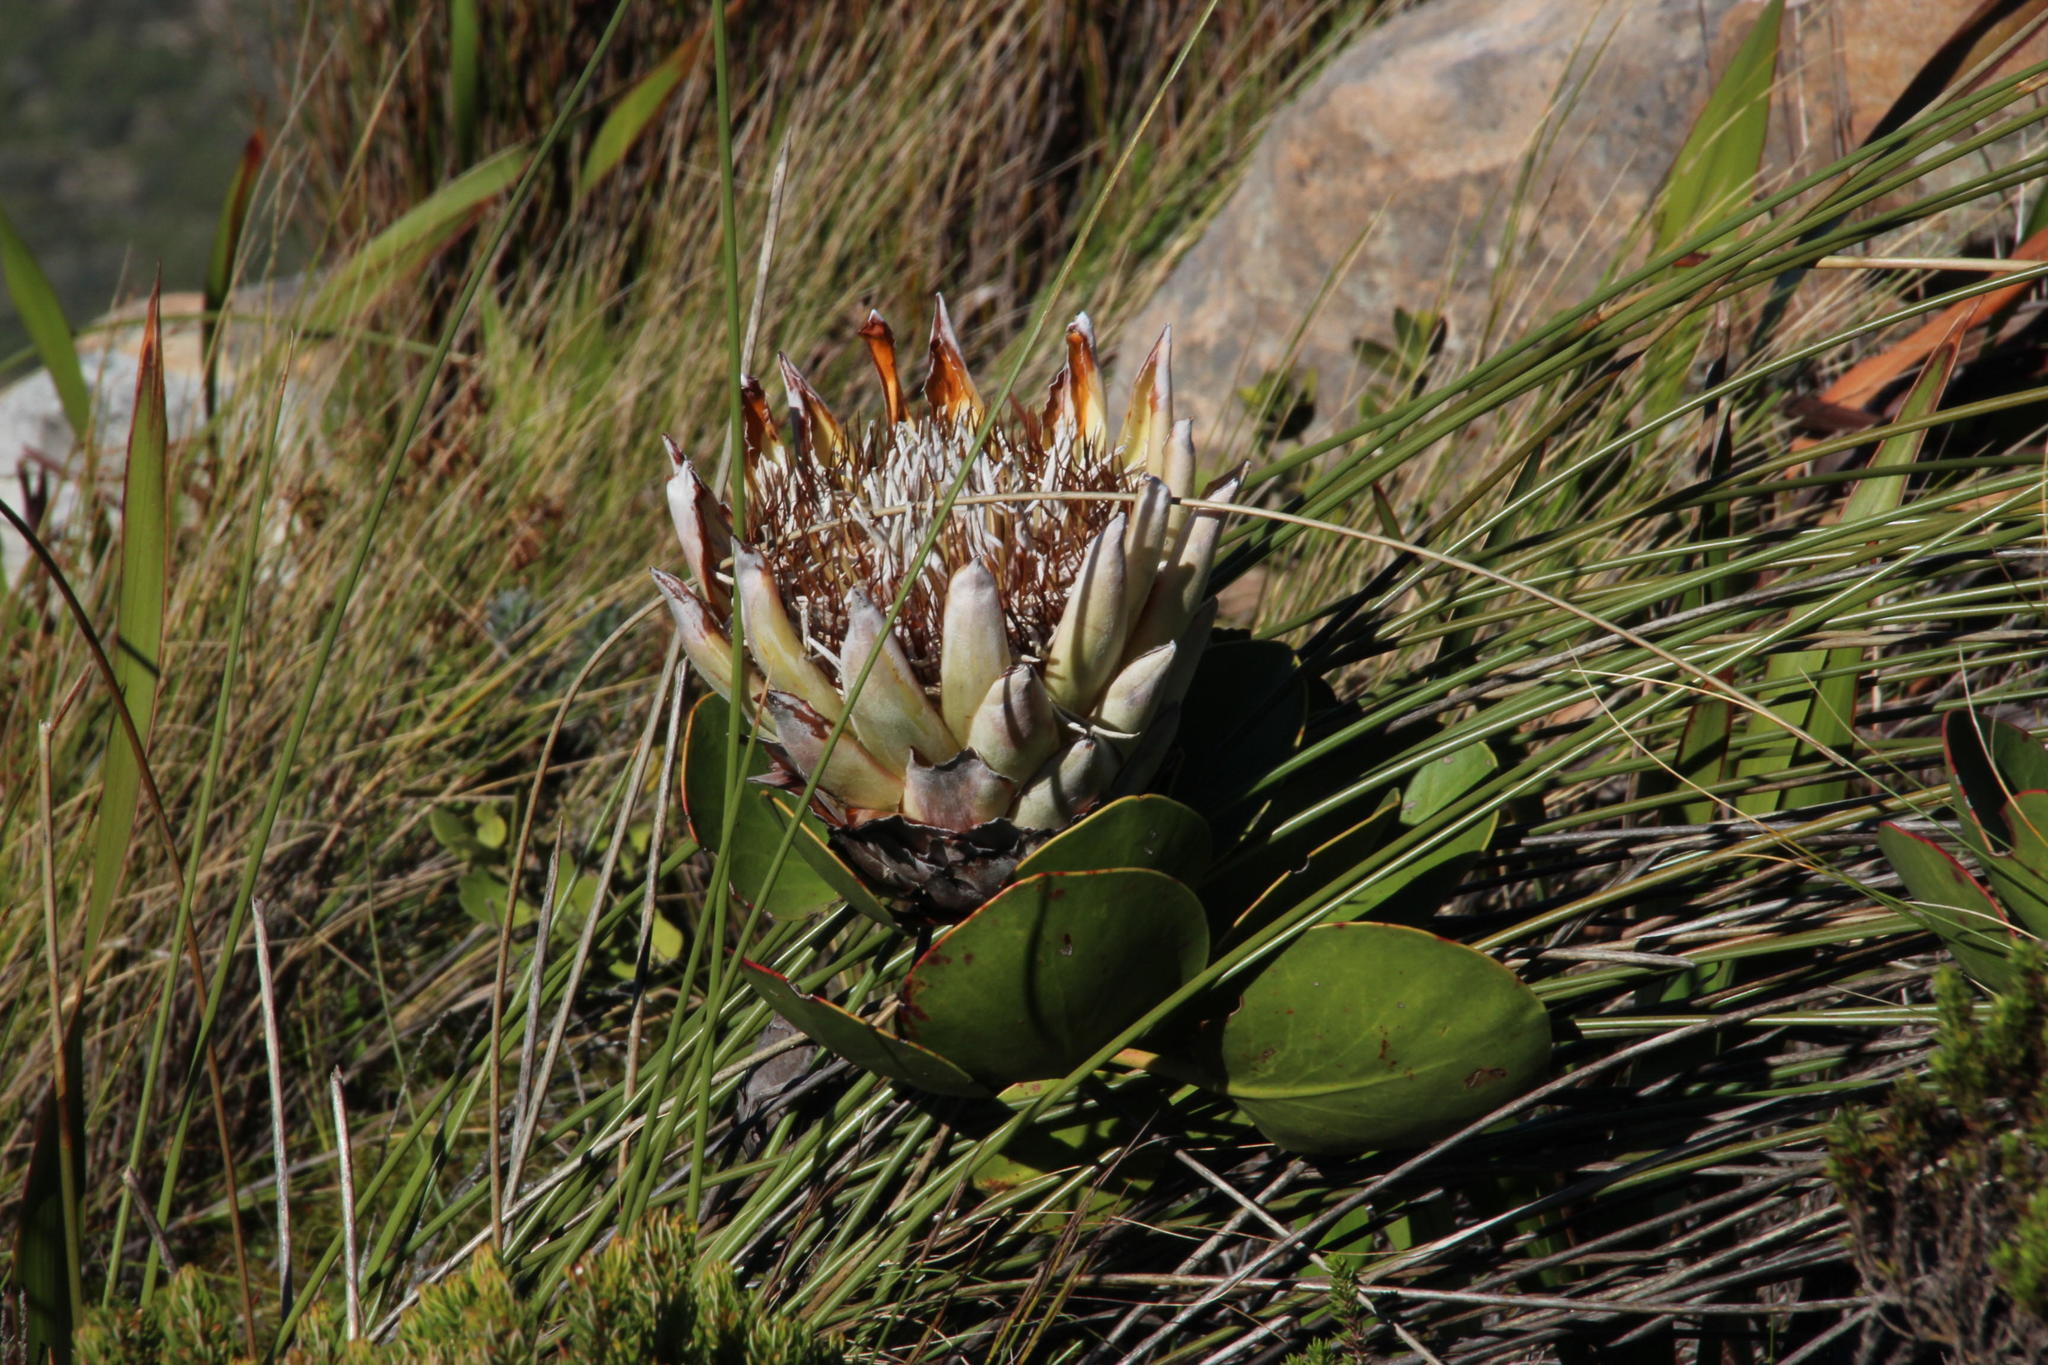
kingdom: Plantae
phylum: Tracheophyta
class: Magnoliopsida
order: Proteales
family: Proteaceae
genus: Protea
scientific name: Protea cynaroides
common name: King protea
